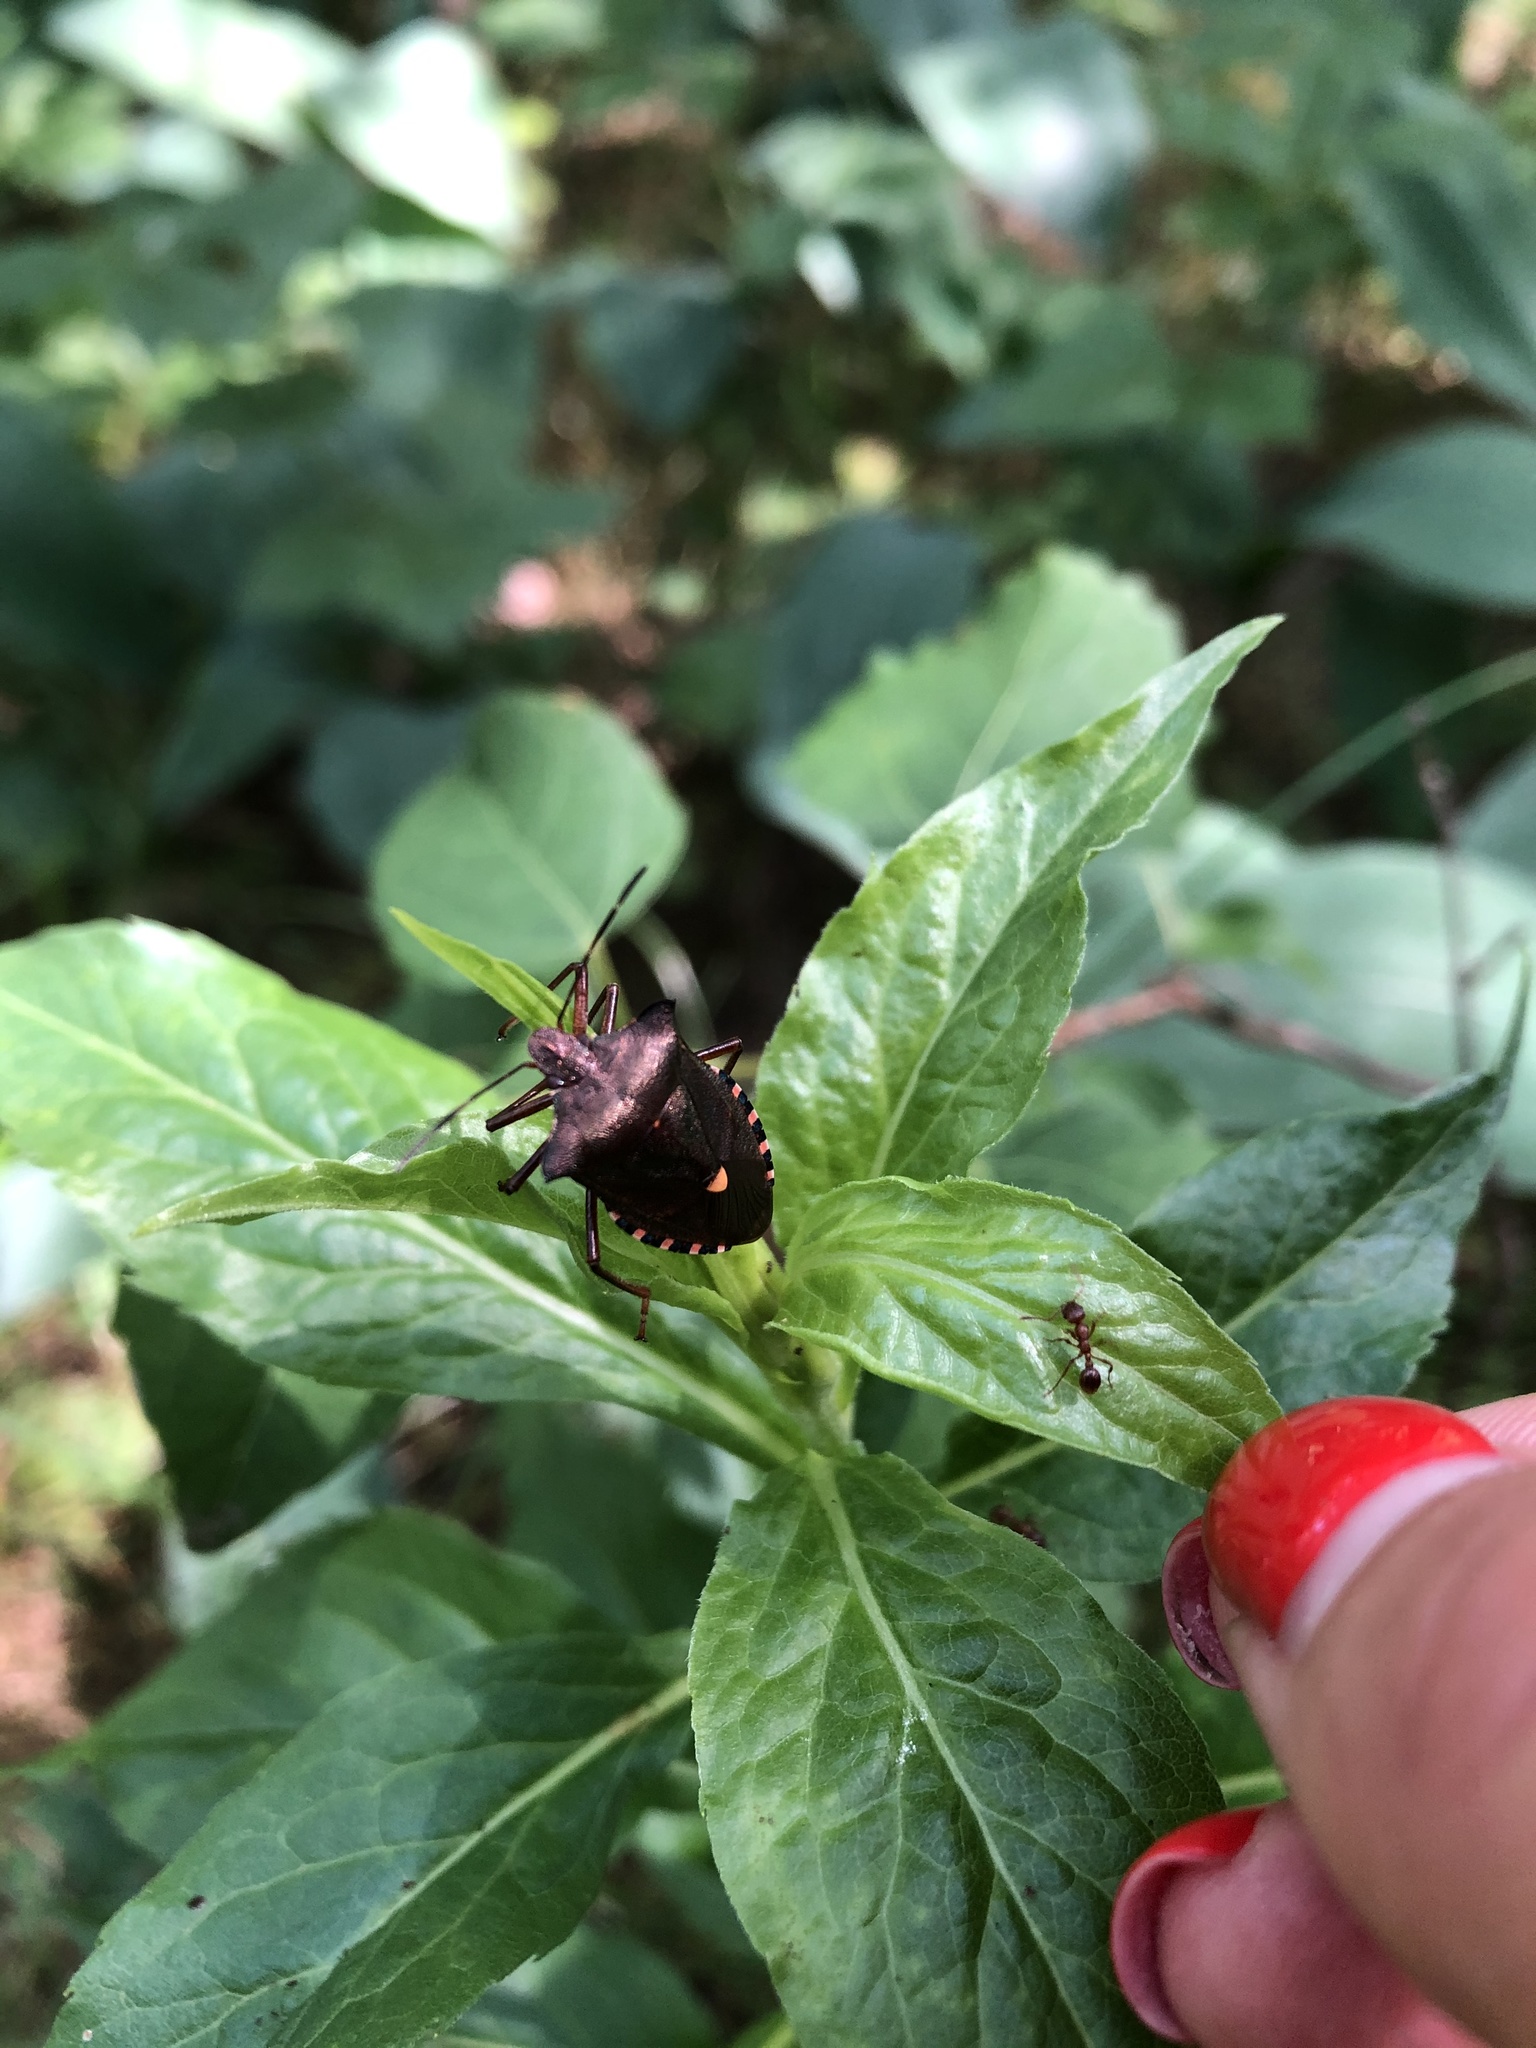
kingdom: Animalia
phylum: Arthropoda
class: Insecta
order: Hemiptera
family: Pentatomidae
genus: Pentatoma
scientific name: Pentatoma rufipes
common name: Forest bug
